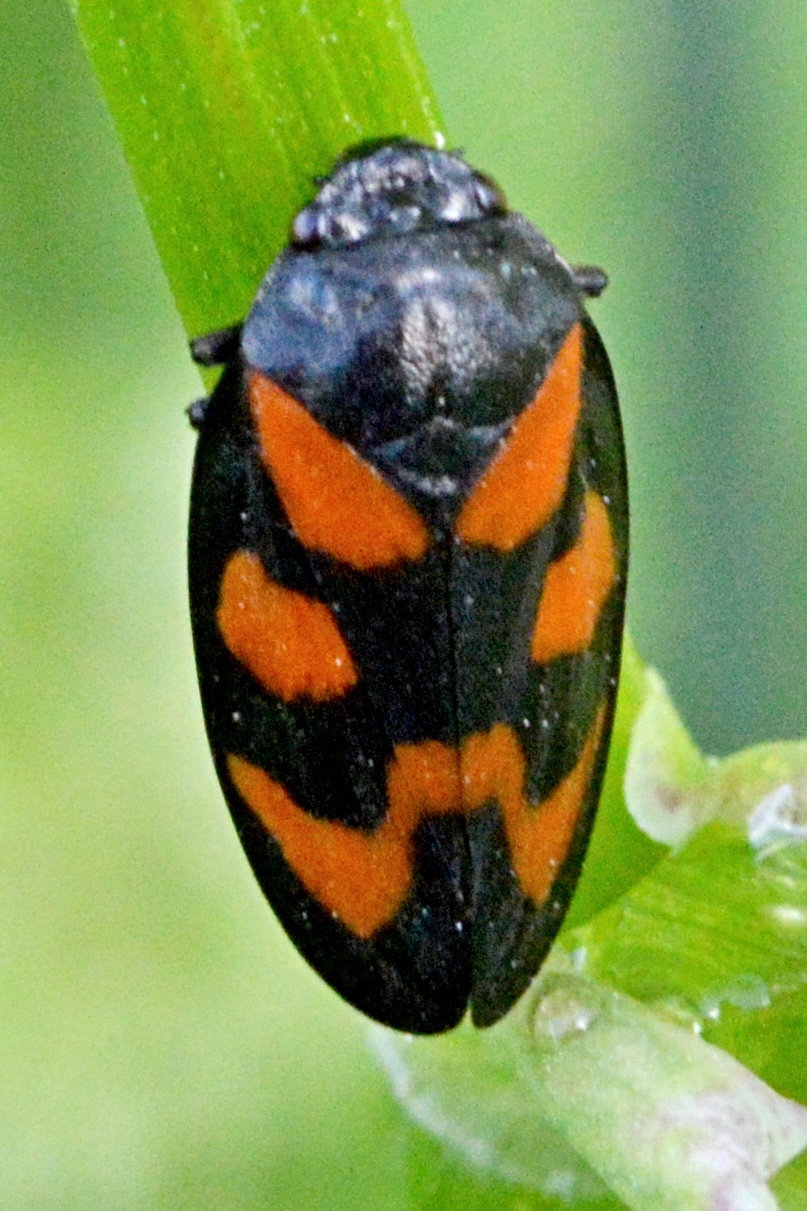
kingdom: Animalia
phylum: Arthropoda
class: Insecta
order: Hemiptera
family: Cercopidae
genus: Cercopis
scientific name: Cercopis vulnerata
